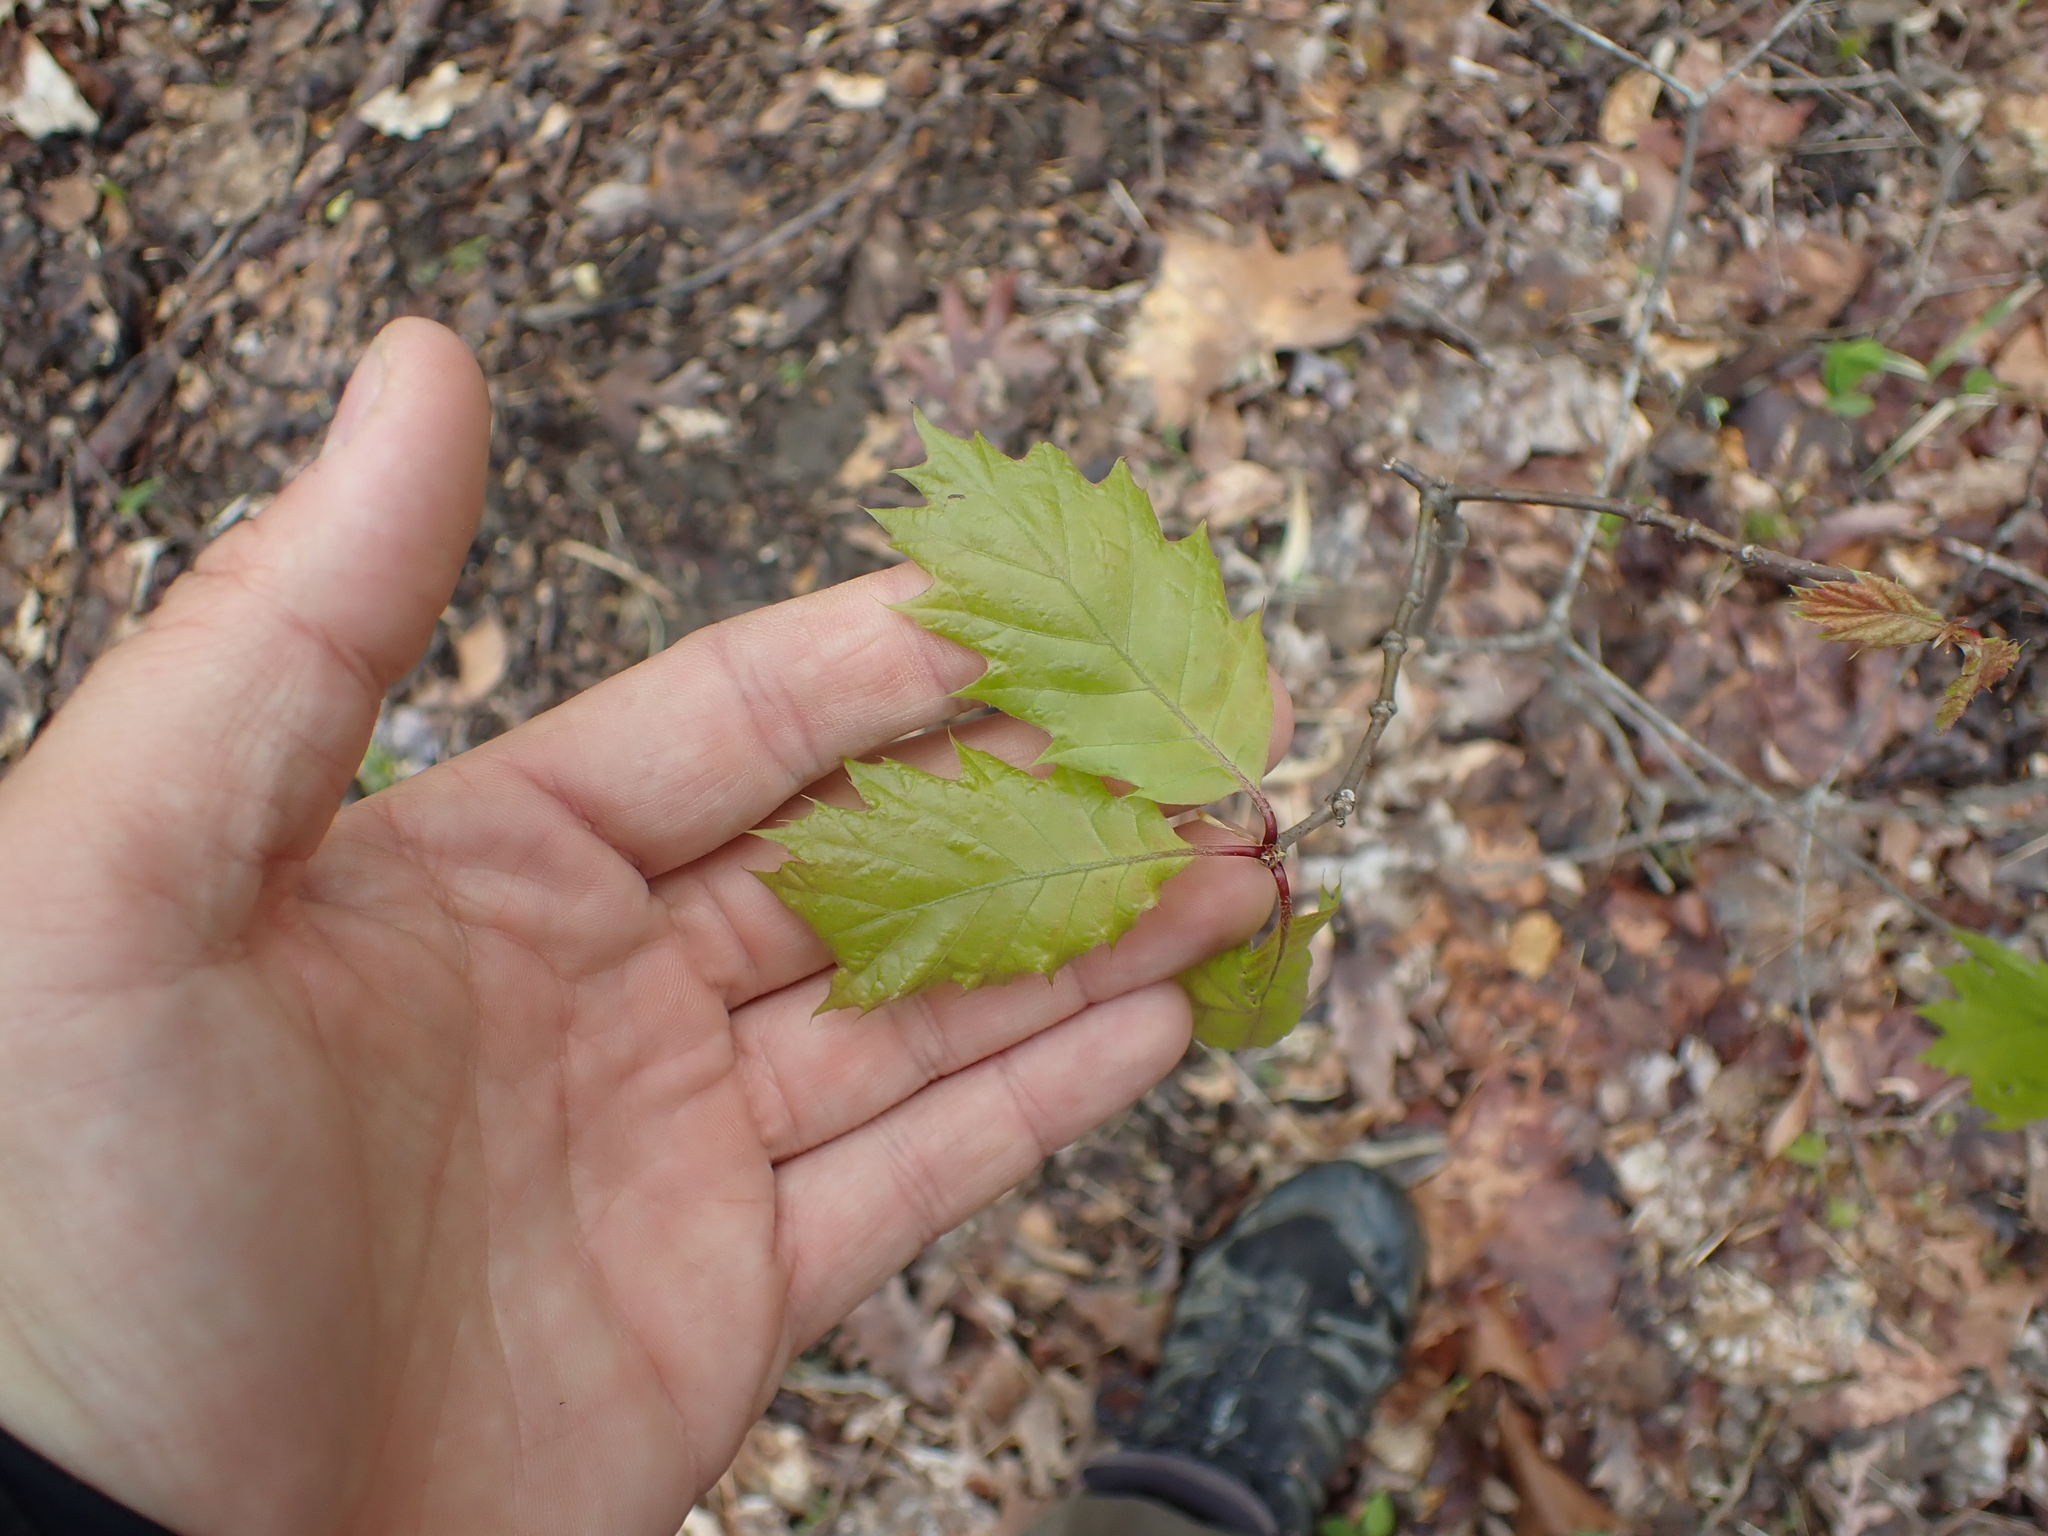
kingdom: Plantae
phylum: Tracheophyta
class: Magnoliopsida
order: Fagales
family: Fagaceae
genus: Quercus
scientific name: Quercus rubra
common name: Red oak
